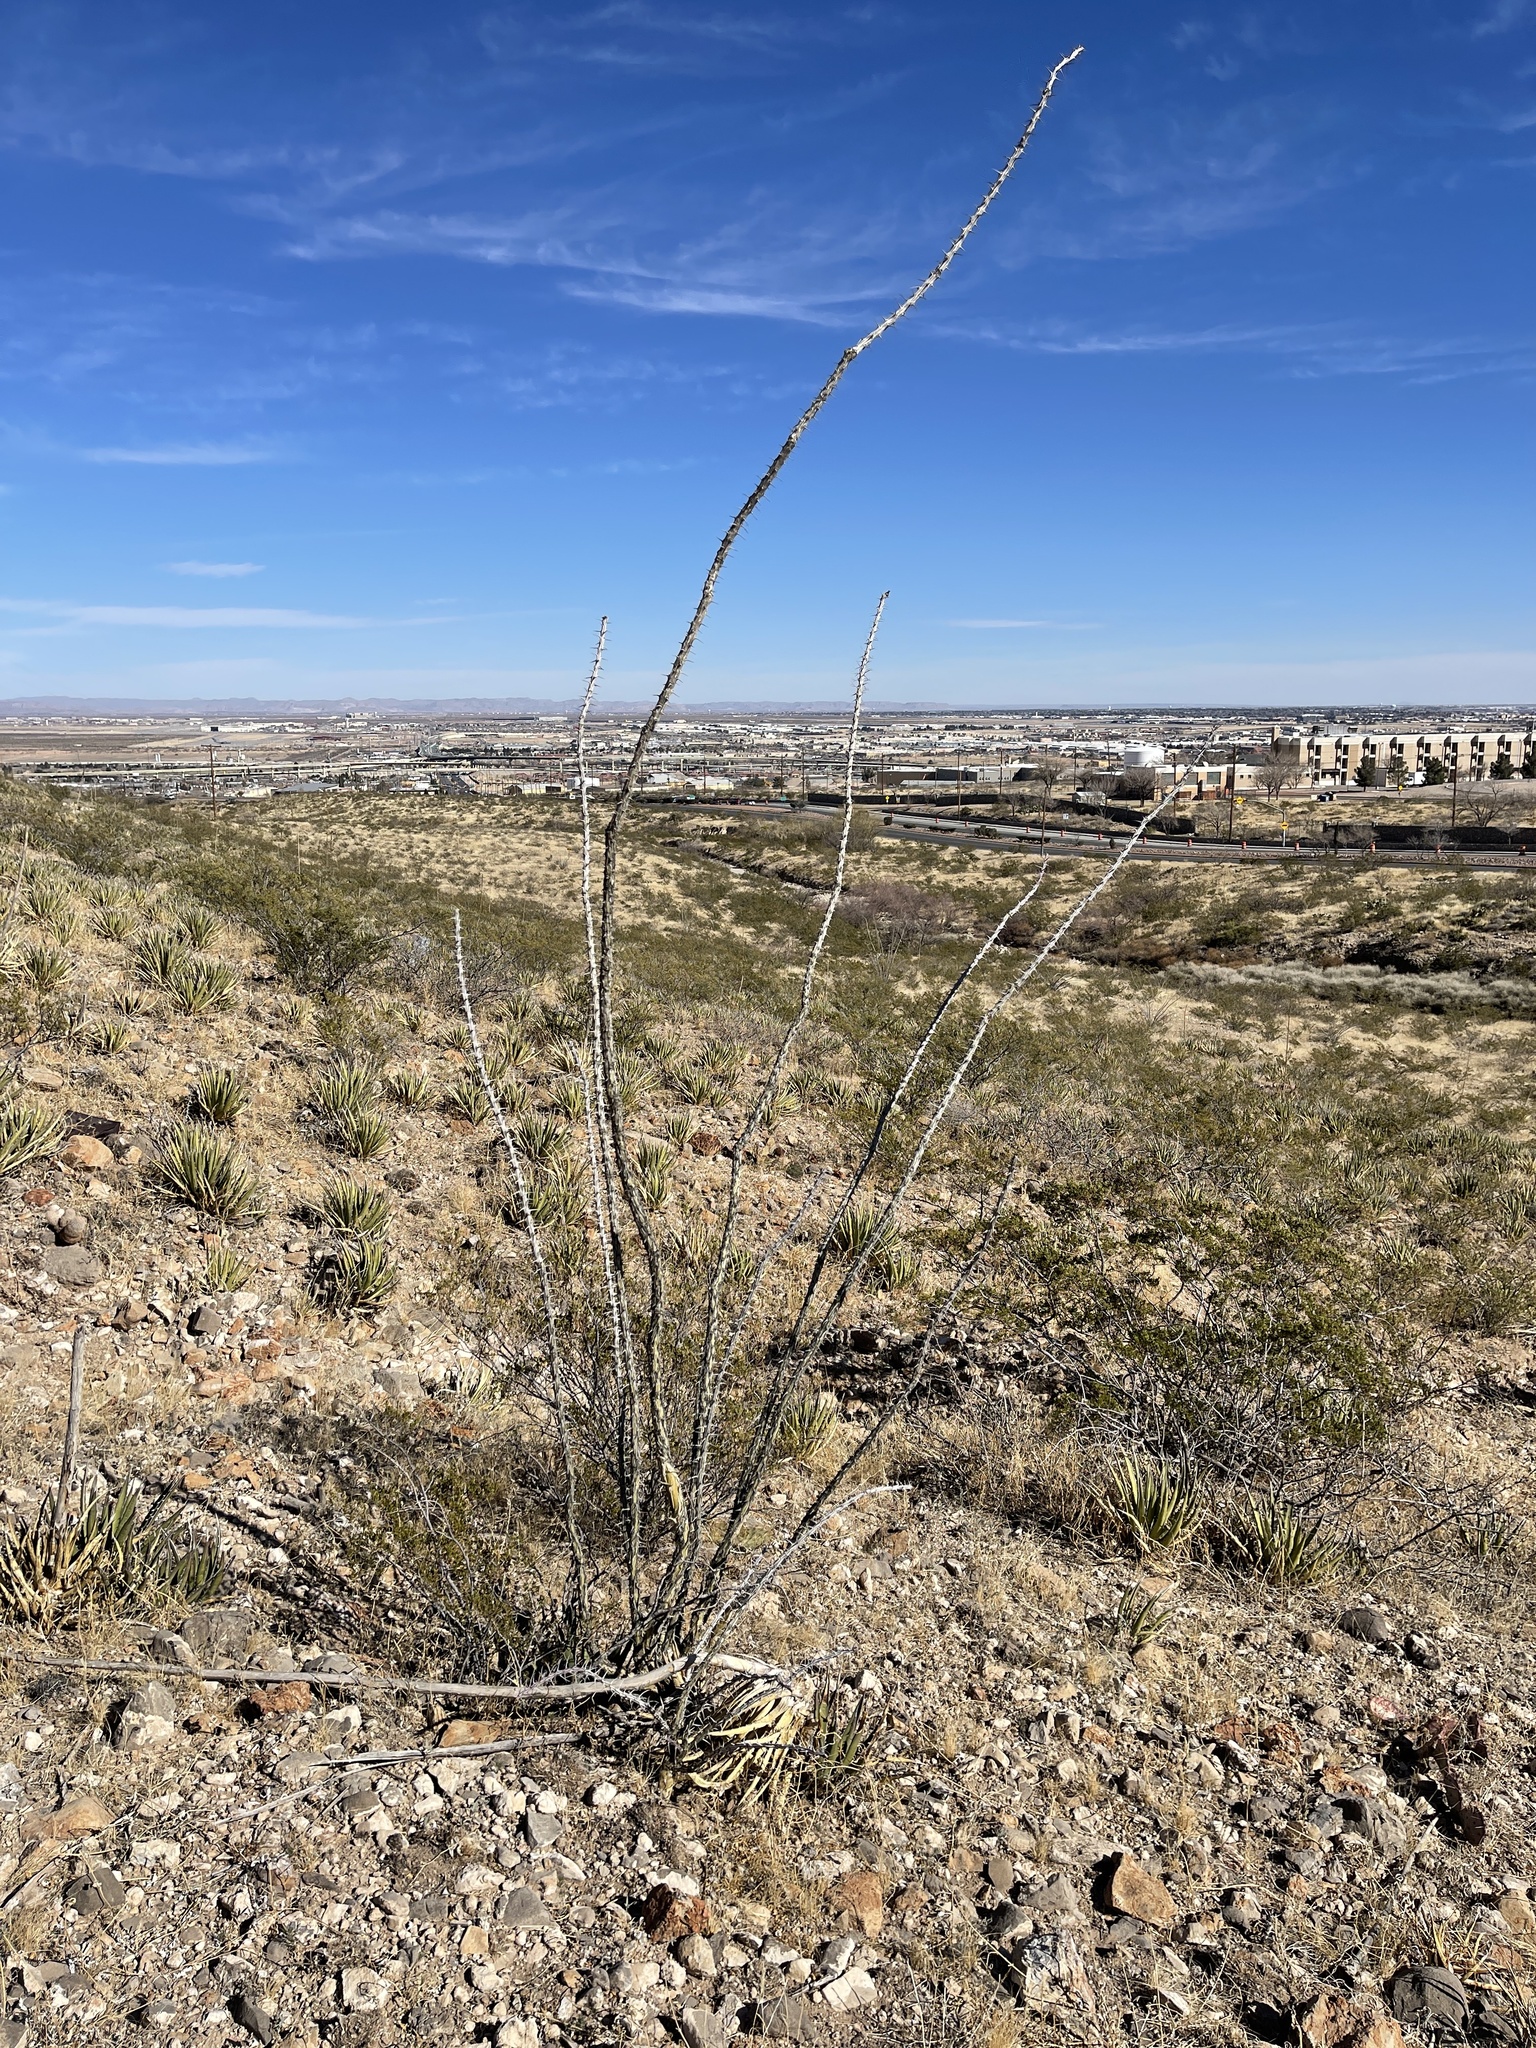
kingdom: Plantae
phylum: Tracheophyta
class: Magnoliopsida
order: Ericales
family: Fouquieriaceae
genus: Fouquieria
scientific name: Fouquieria splendens
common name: Vine-cactus
